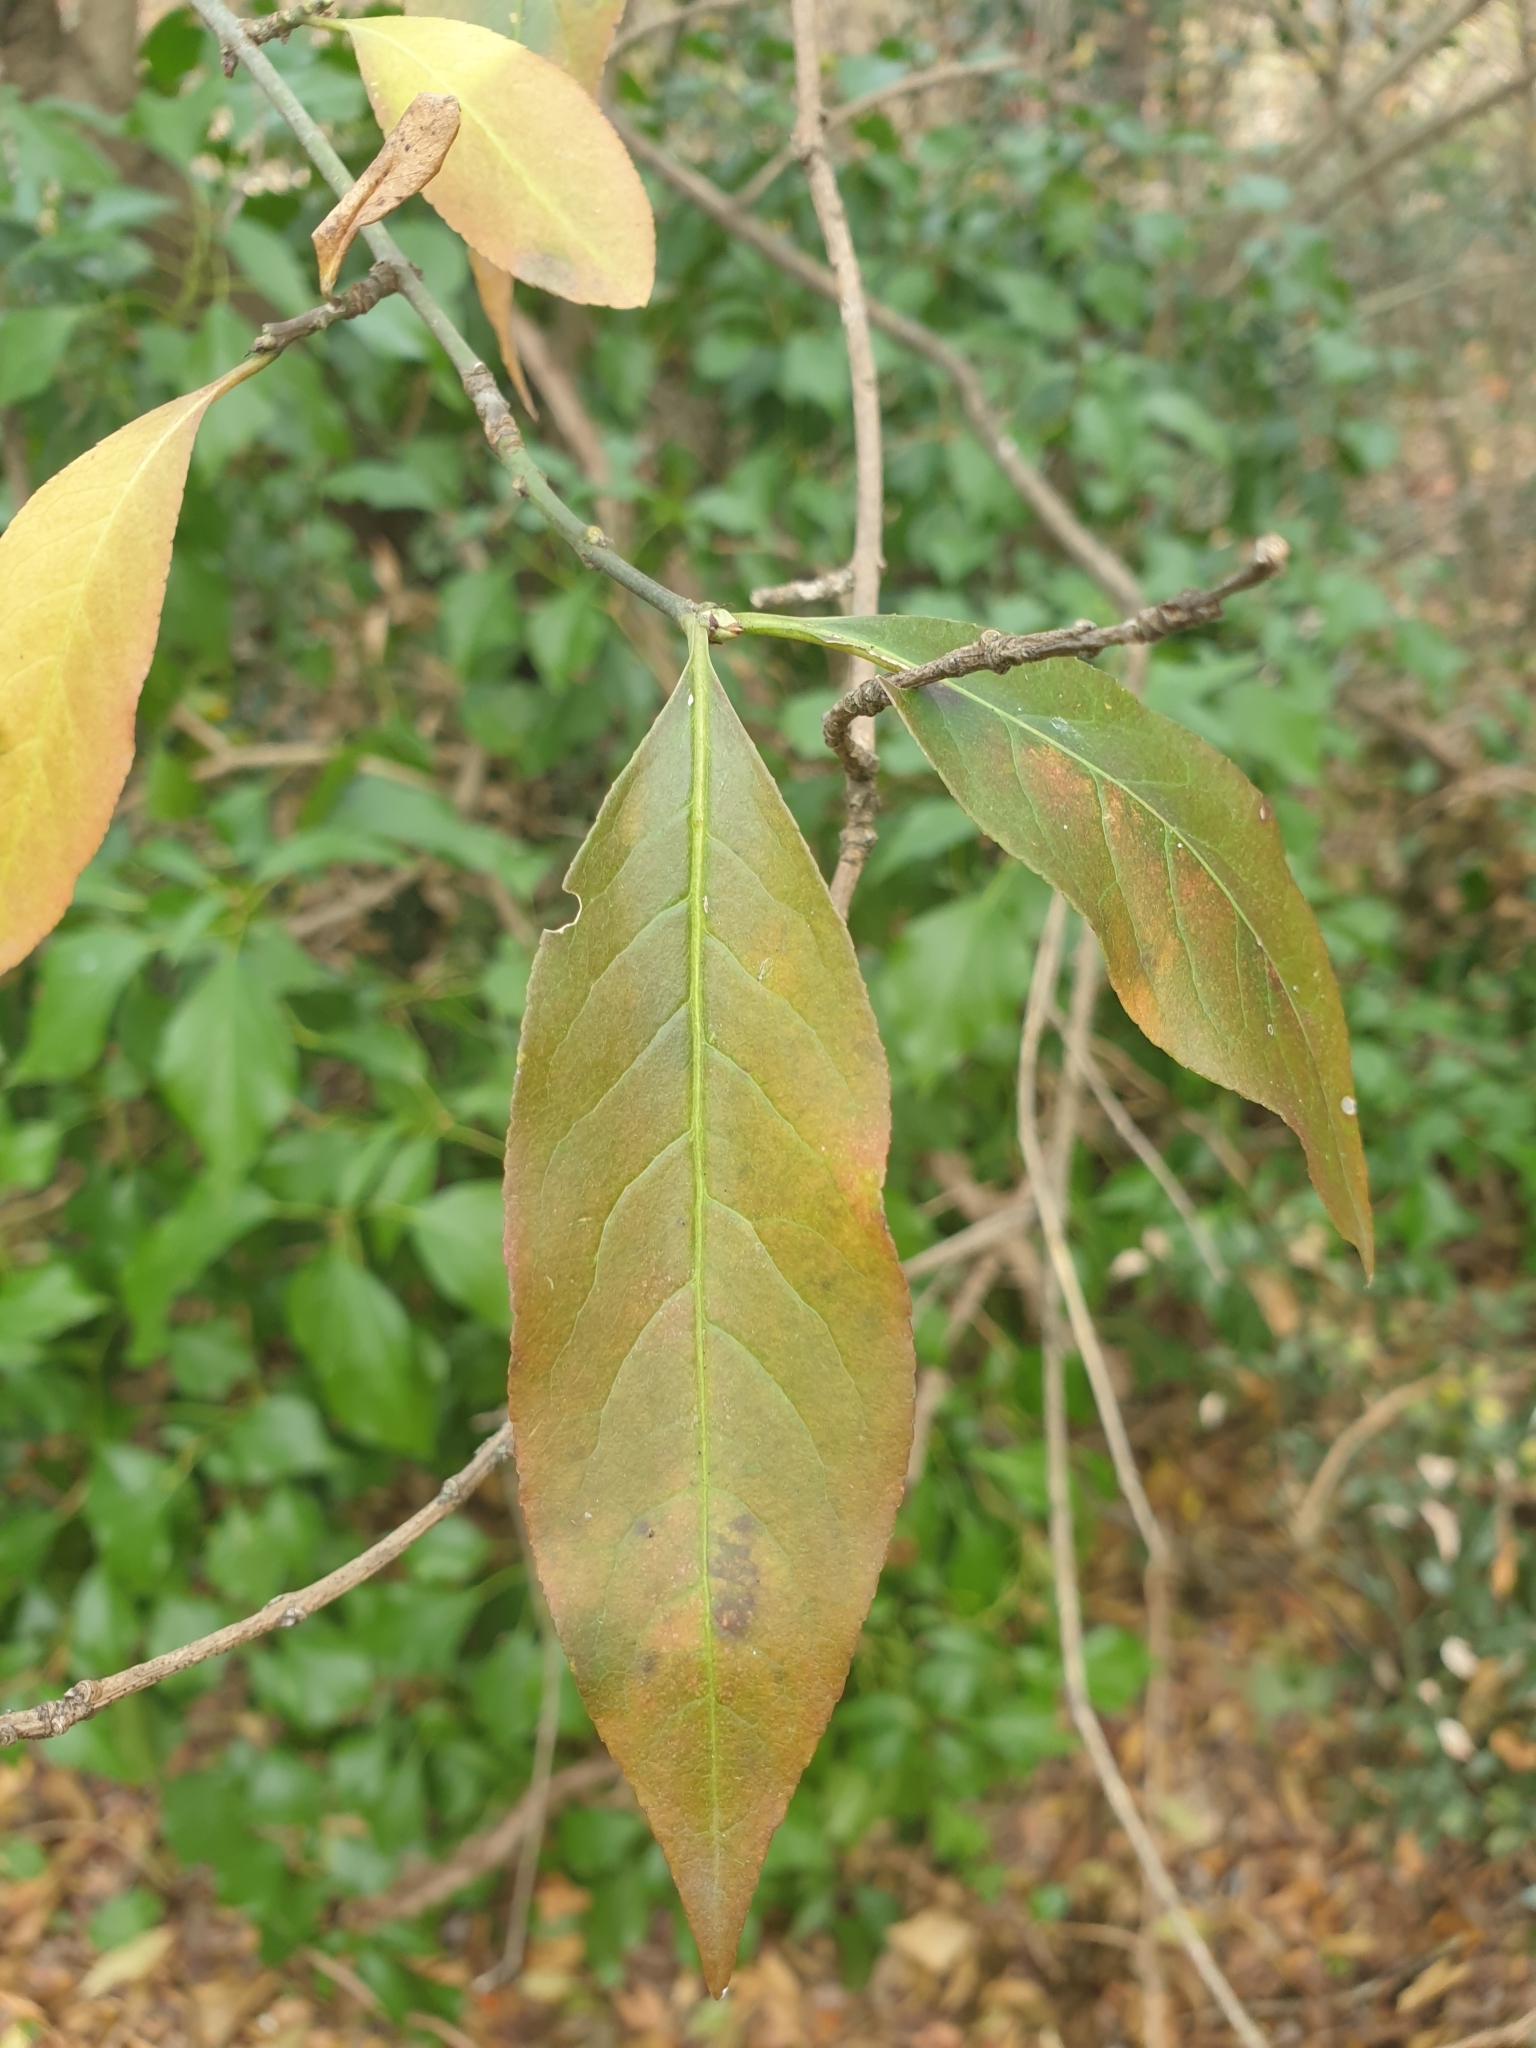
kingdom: Plantae
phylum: Tracheophyta
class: Magnoliopsida
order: Celastrales
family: Celastraceae
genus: Euonymus
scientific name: Euonymus europaeus
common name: Spindle
